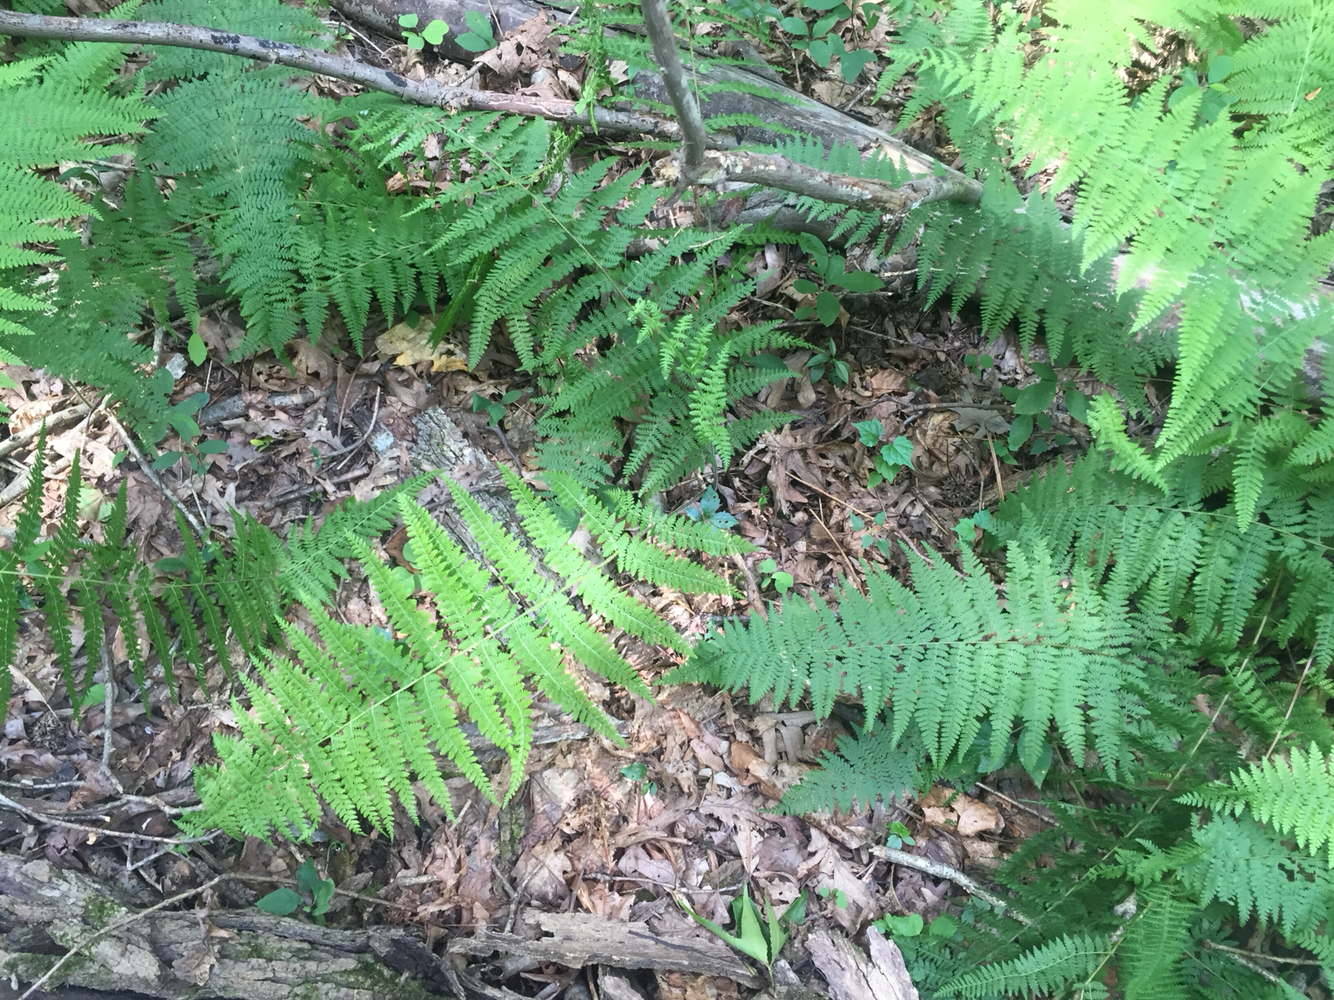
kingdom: Plantae
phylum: Tracheophyta
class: Polypodiopsida
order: Polypodiales
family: Dennstaedtiaceae
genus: Sitobolium
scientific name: Sitobolium punctilobum
